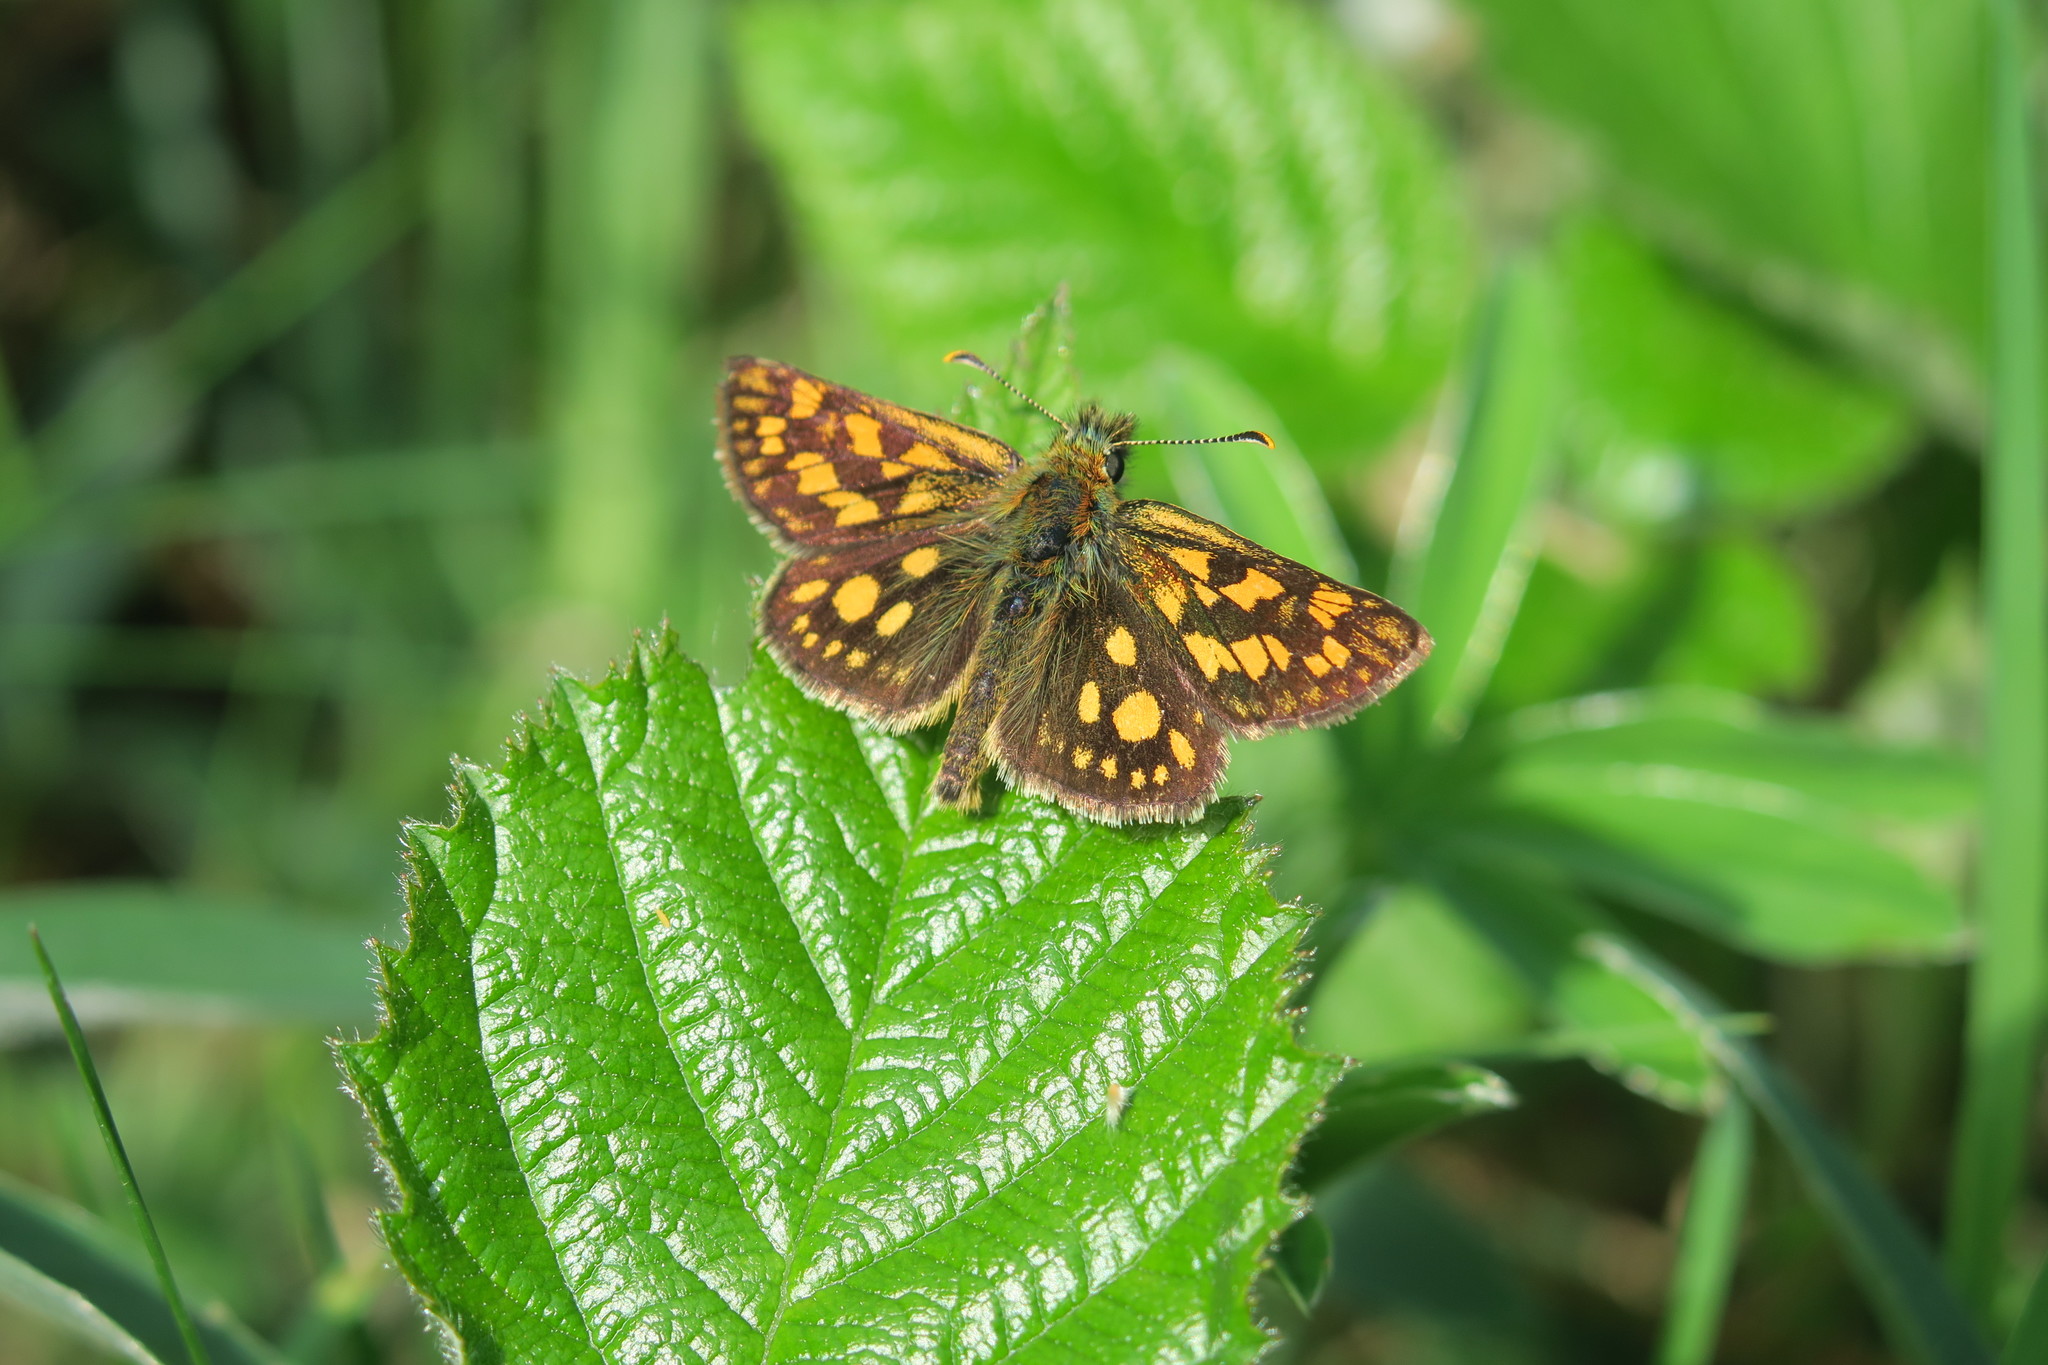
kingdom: Animalia
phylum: Arthropoda
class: Insecta
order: Lepidoptera
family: Hesperiidae
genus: Carterocephalus
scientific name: Carterocephalus palaemon
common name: Chequered skipper
